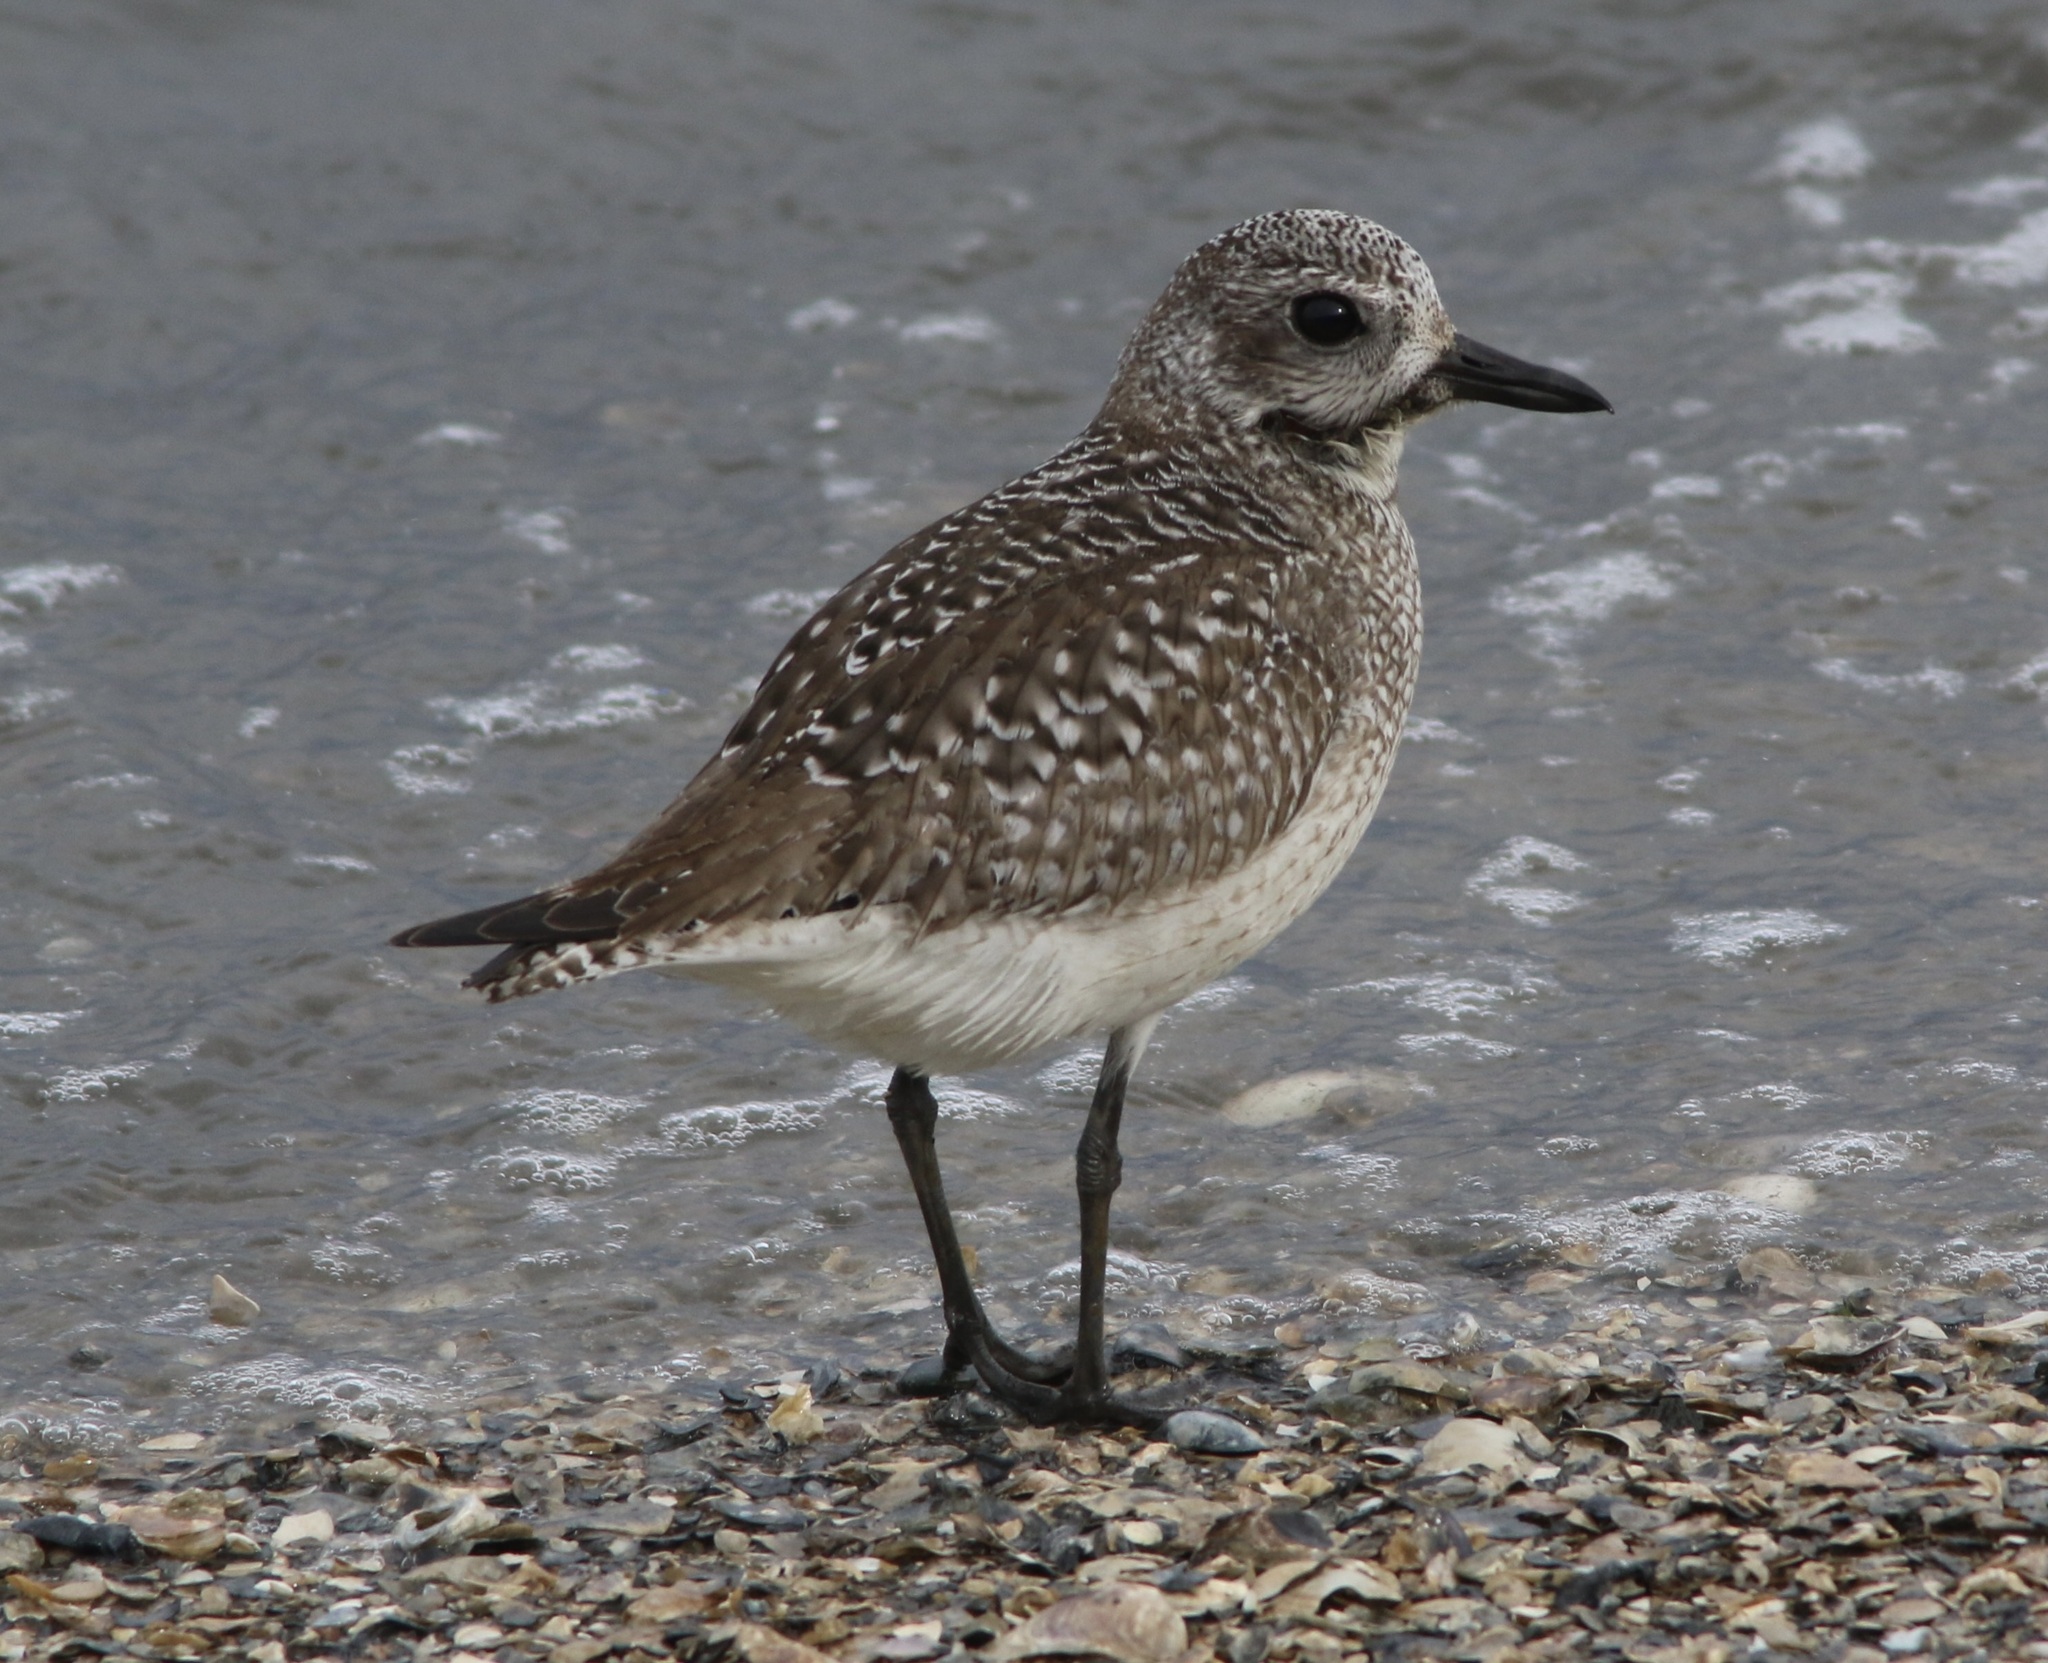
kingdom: Animalia
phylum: Chordata
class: Aves
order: Charadriiformes
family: Charadriidae
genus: Pluvialis
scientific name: Pluvialis squatarola
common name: Grey plover
